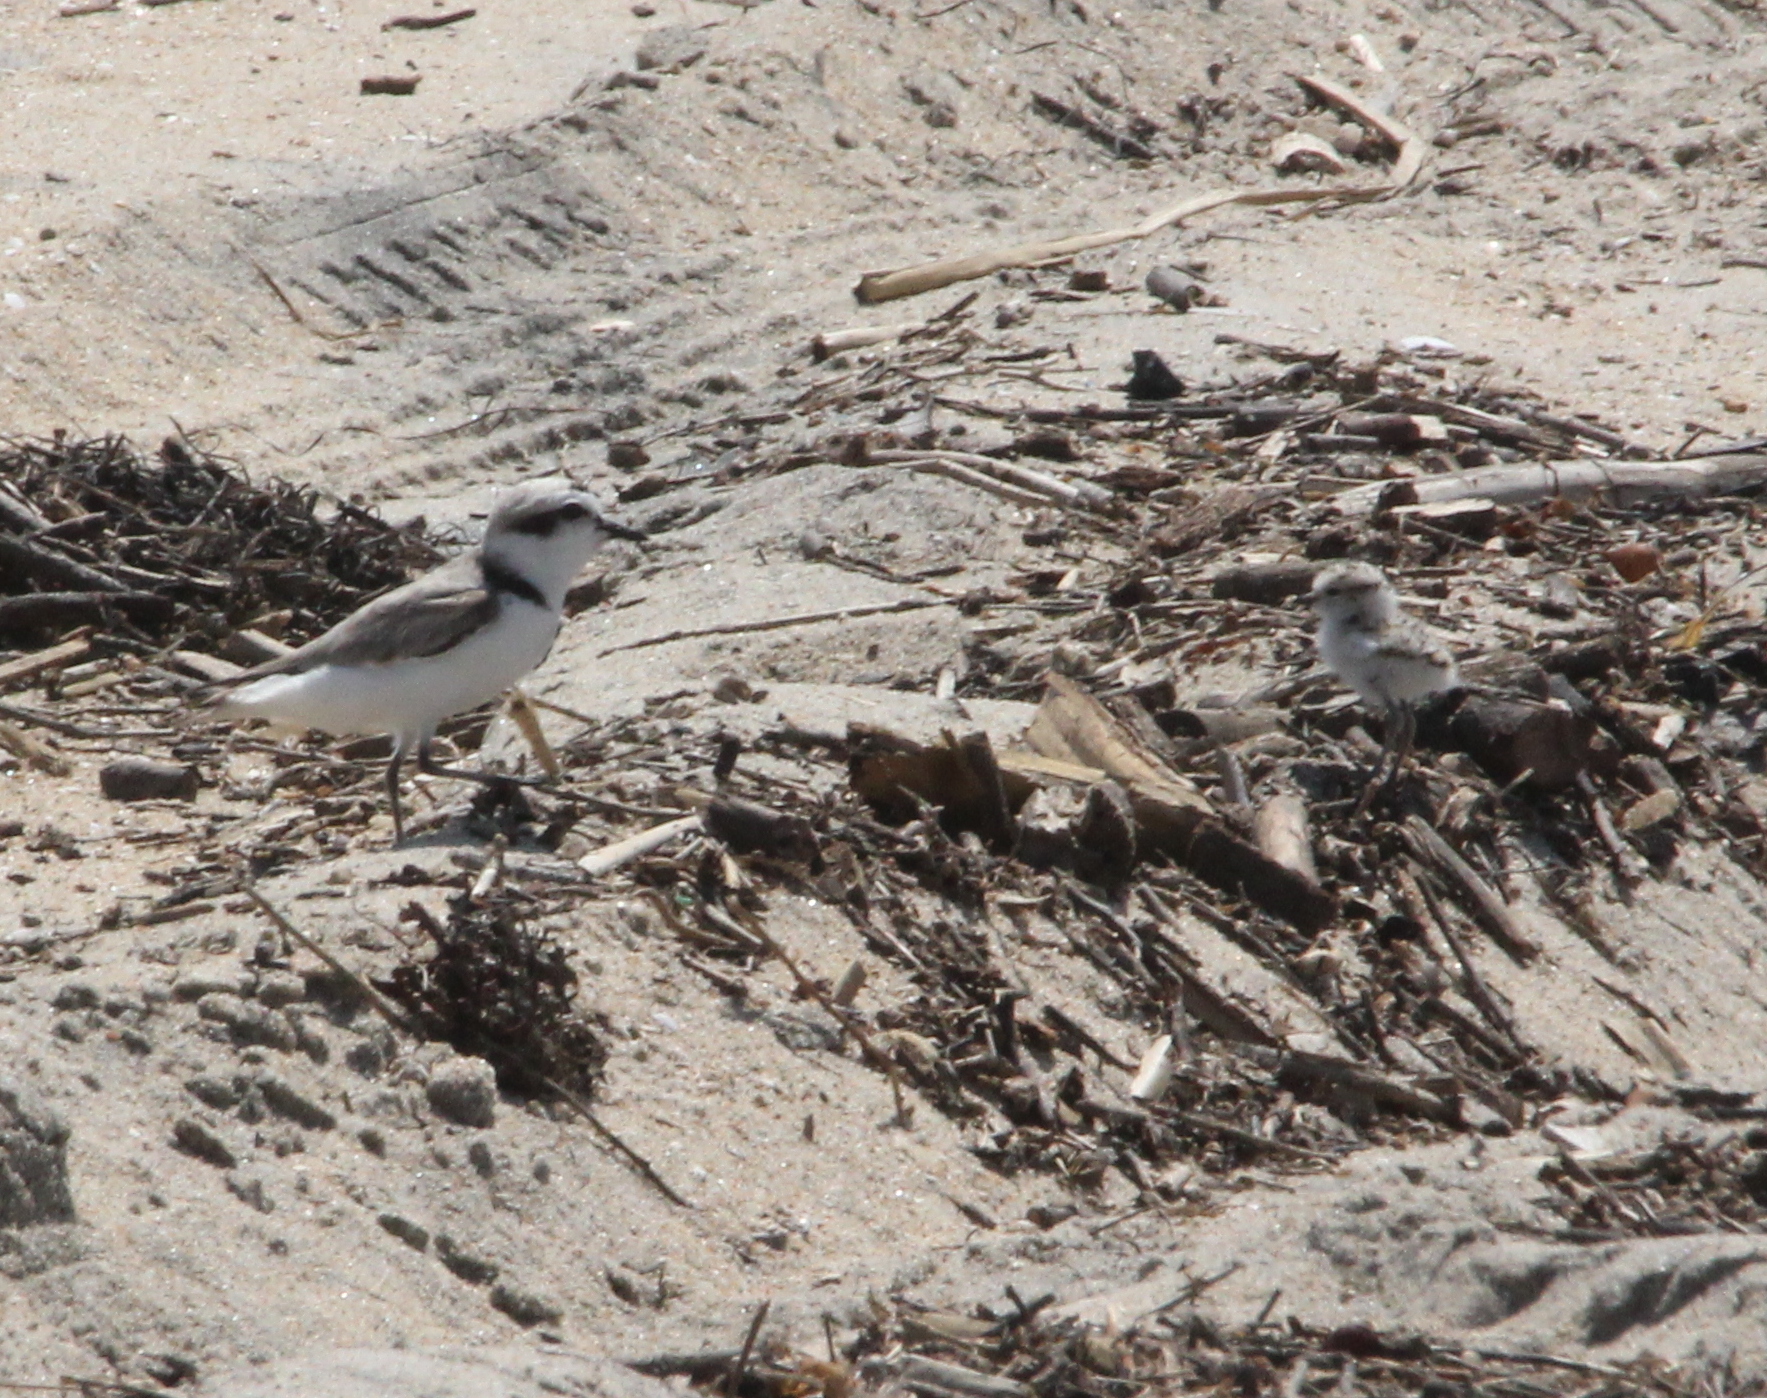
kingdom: Animalia
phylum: Chordata
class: Aves
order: Charadriiformes
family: Charadriidae
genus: Anarhynchus
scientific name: Anarhynchus
